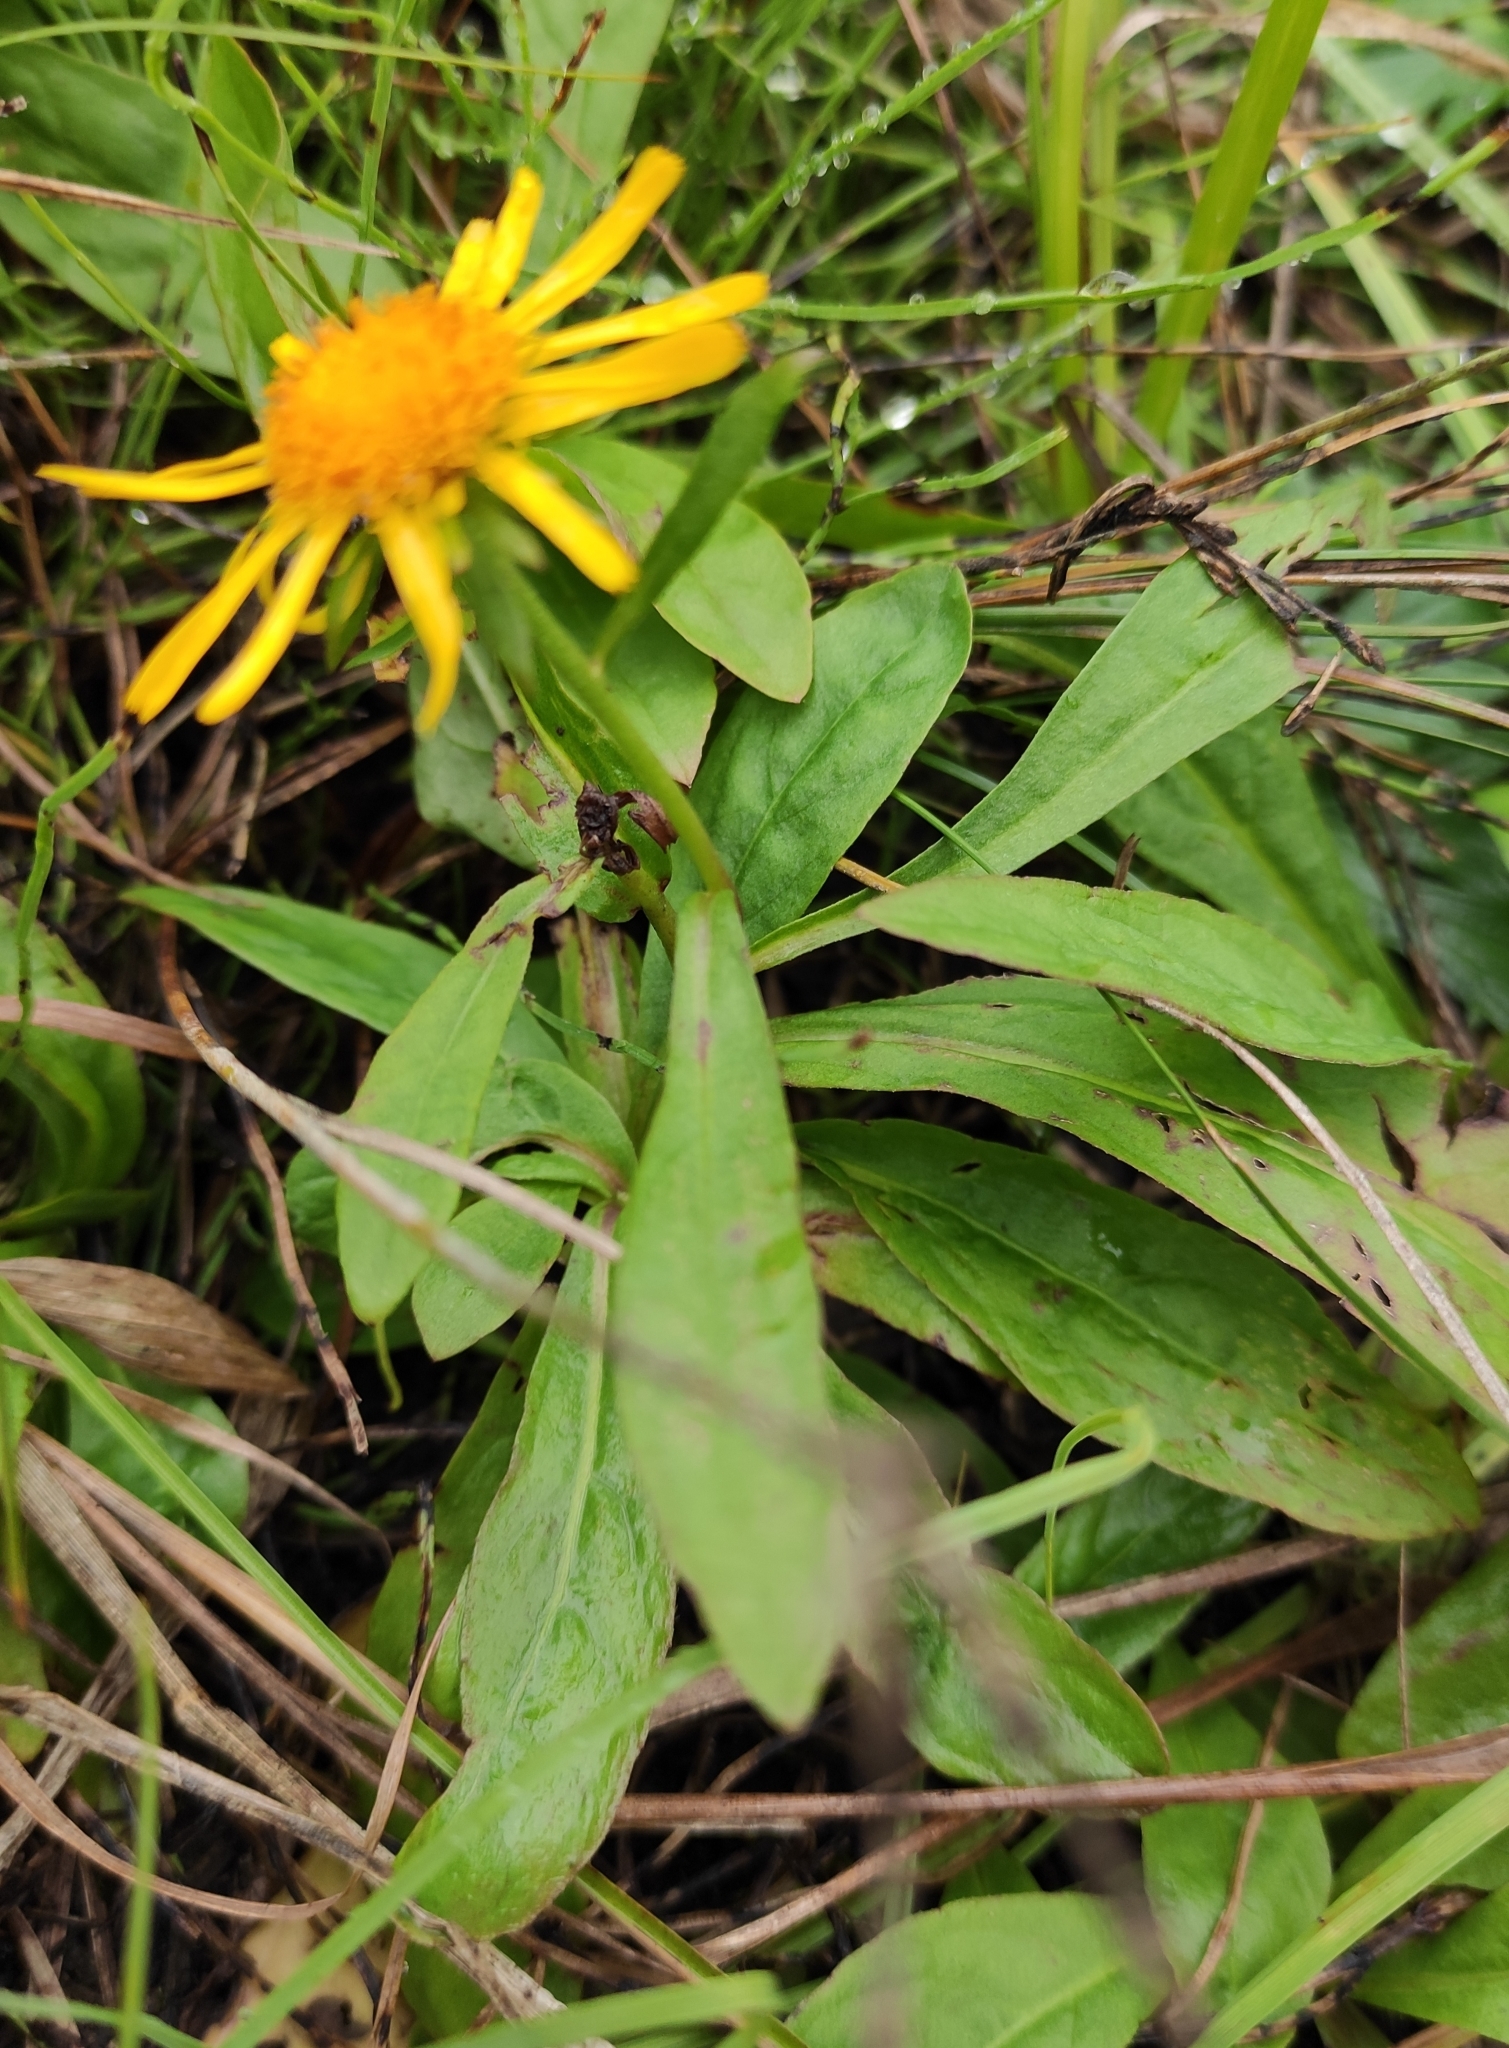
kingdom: Plantae
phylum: Tracheophyta
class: Magnoliopsida
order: Asterales
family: Asteraceae
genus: Pentanema
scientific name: Pentanema britannicum
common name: British elecampane
